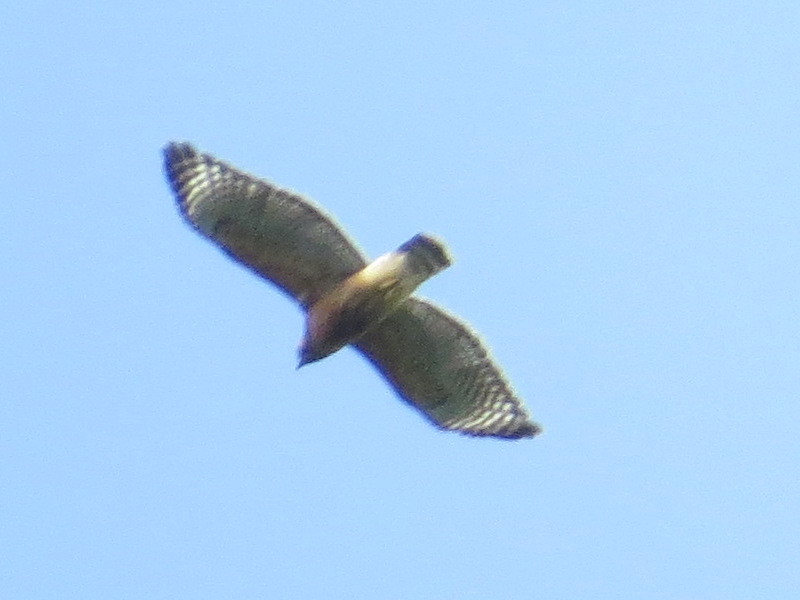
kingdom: Animalia
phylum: Chordata
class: Aves
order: Accipitriformes
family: Accipitridae
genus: Buteo
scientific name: Buteo lineatus
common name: Red-shouldered hawk
